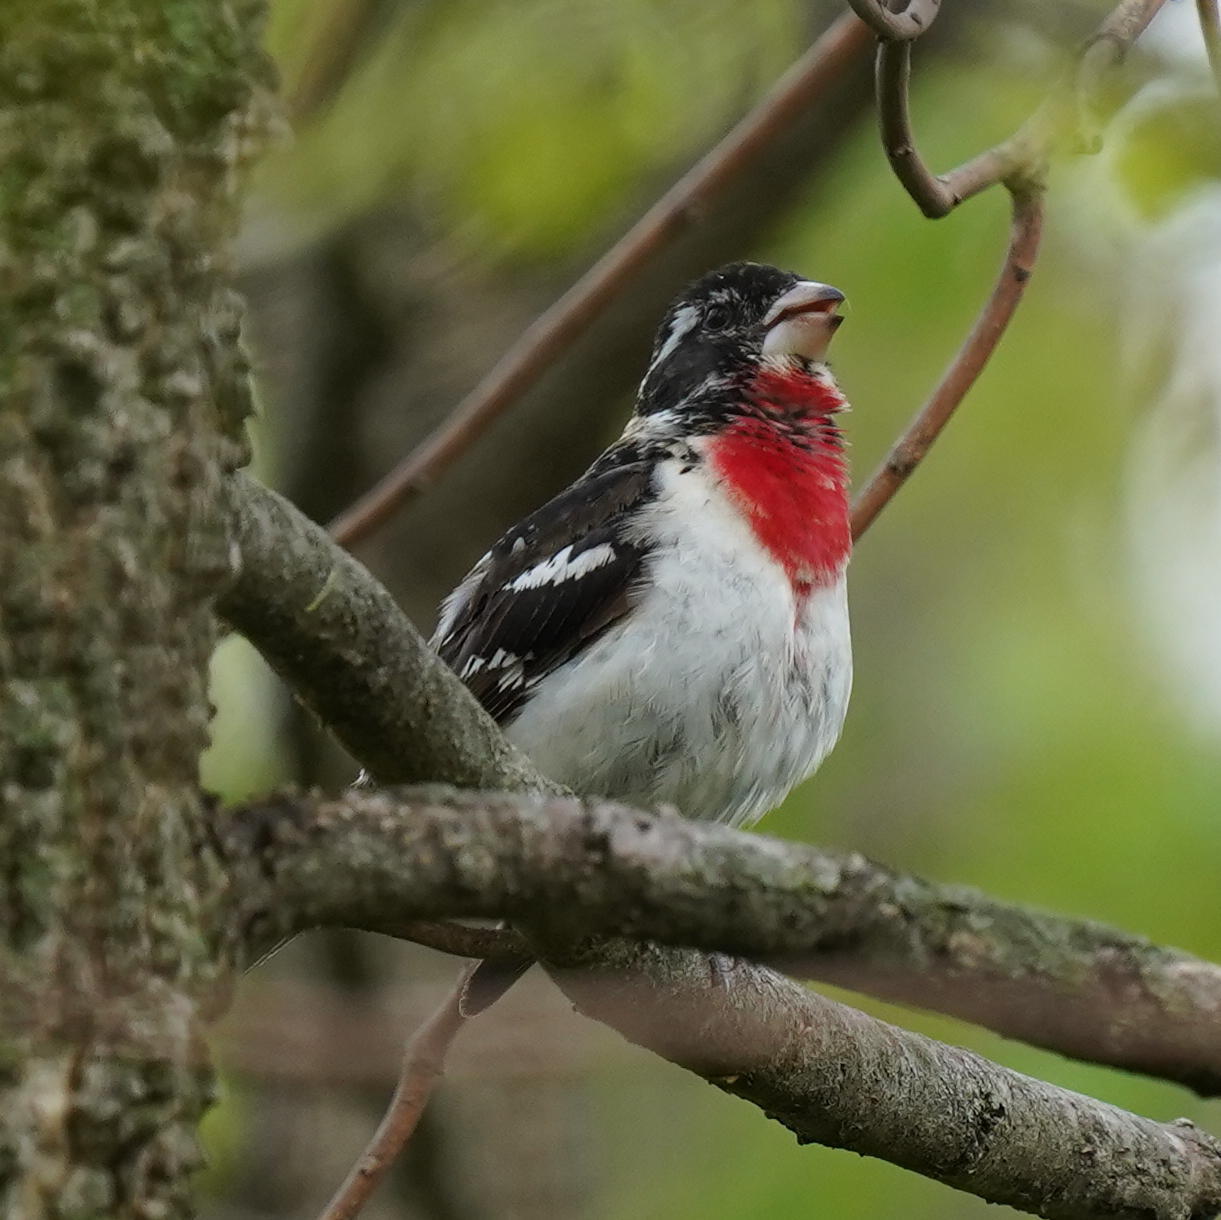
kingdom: Animalia
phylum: Chordata
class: Aves
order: Passeriformes
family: Cardinalidae
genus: Pheucticus
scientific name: Pheucticus ludovicianus
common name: Rose-breasted grosbeak
